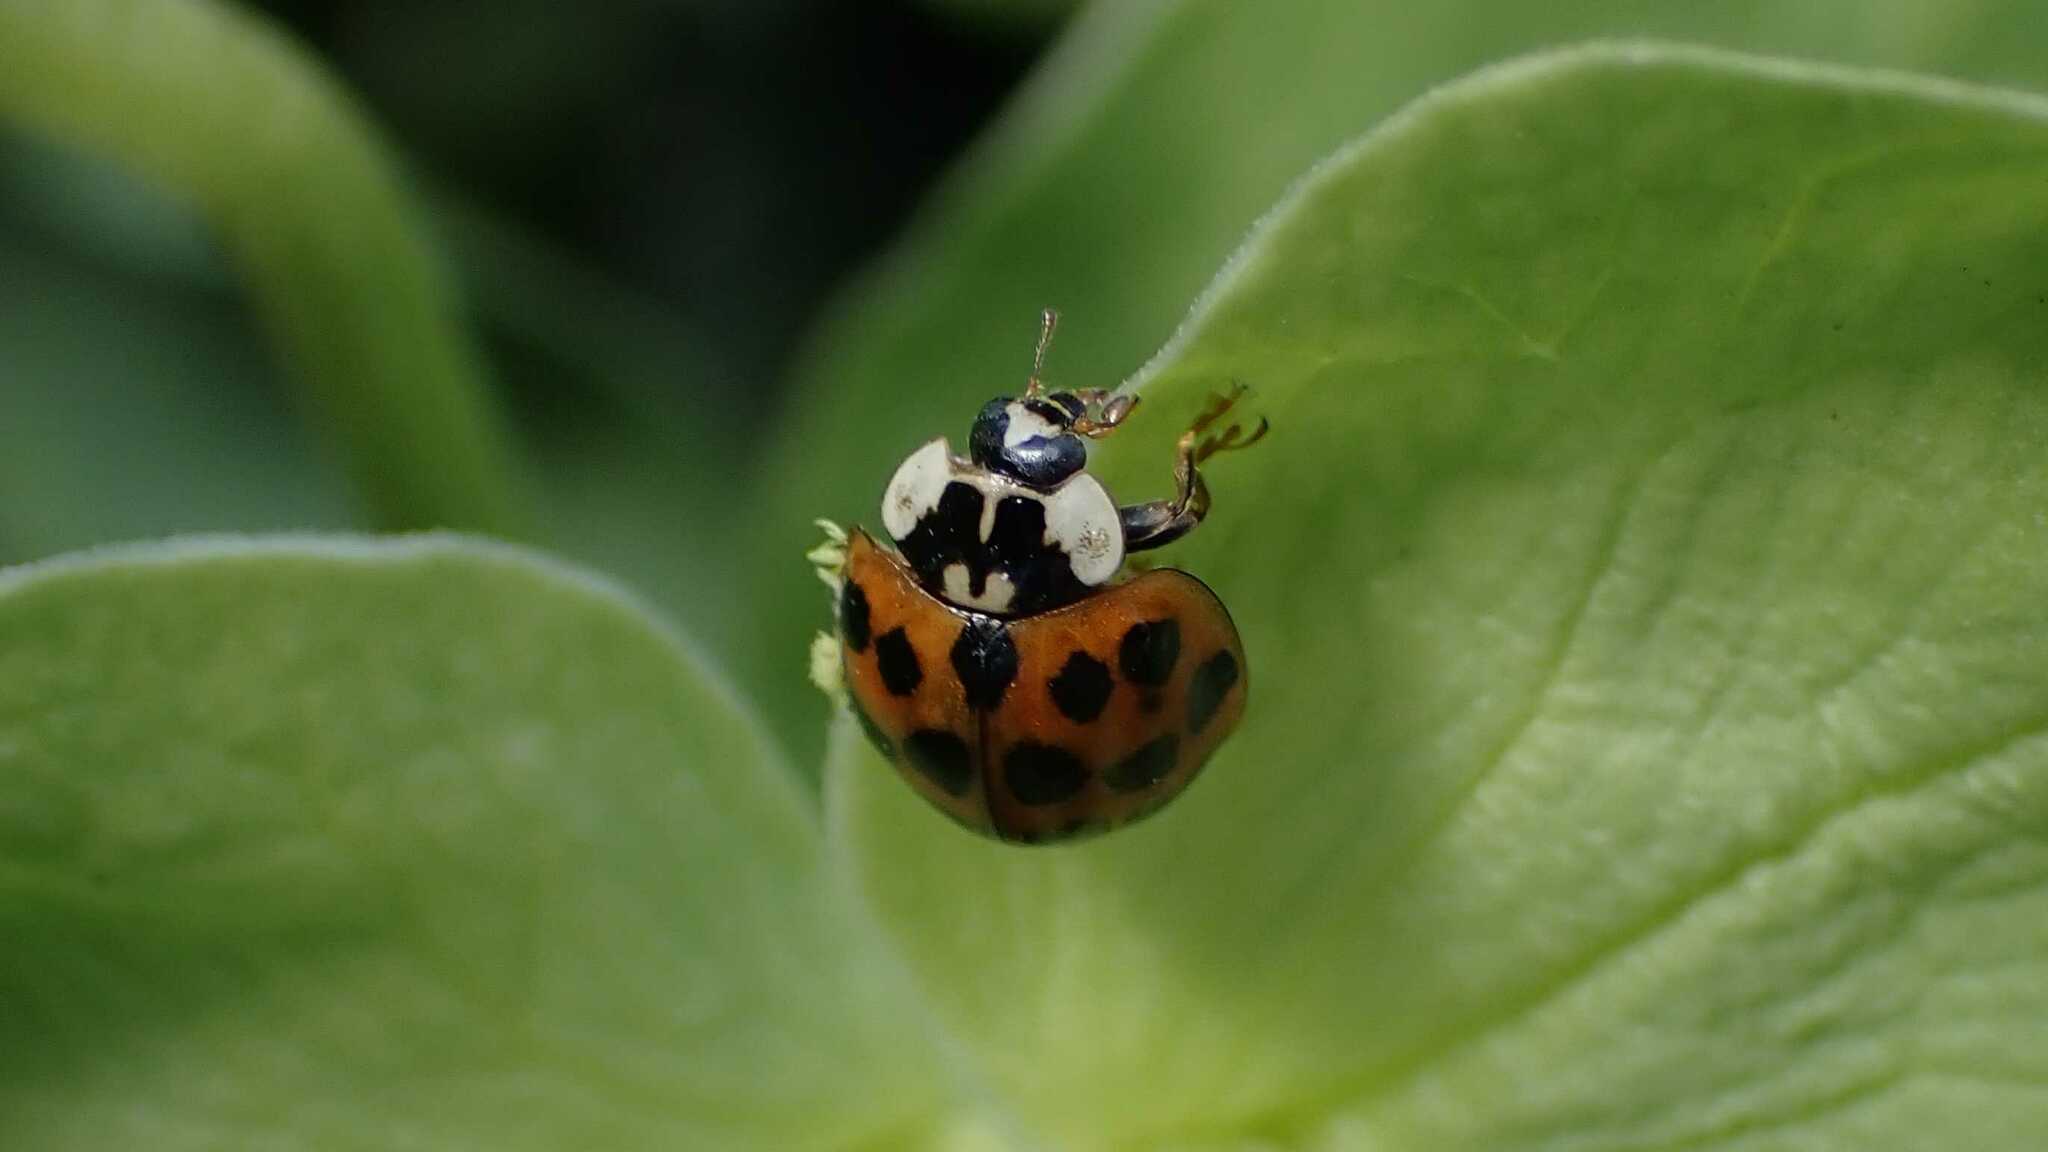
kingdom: Animalia
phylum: Arthropoda
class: Insecta
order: Coleoptera
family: Coccinellidae
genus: Harmonia
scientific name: Harmonia axyridis
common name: Harlequin ladybird
